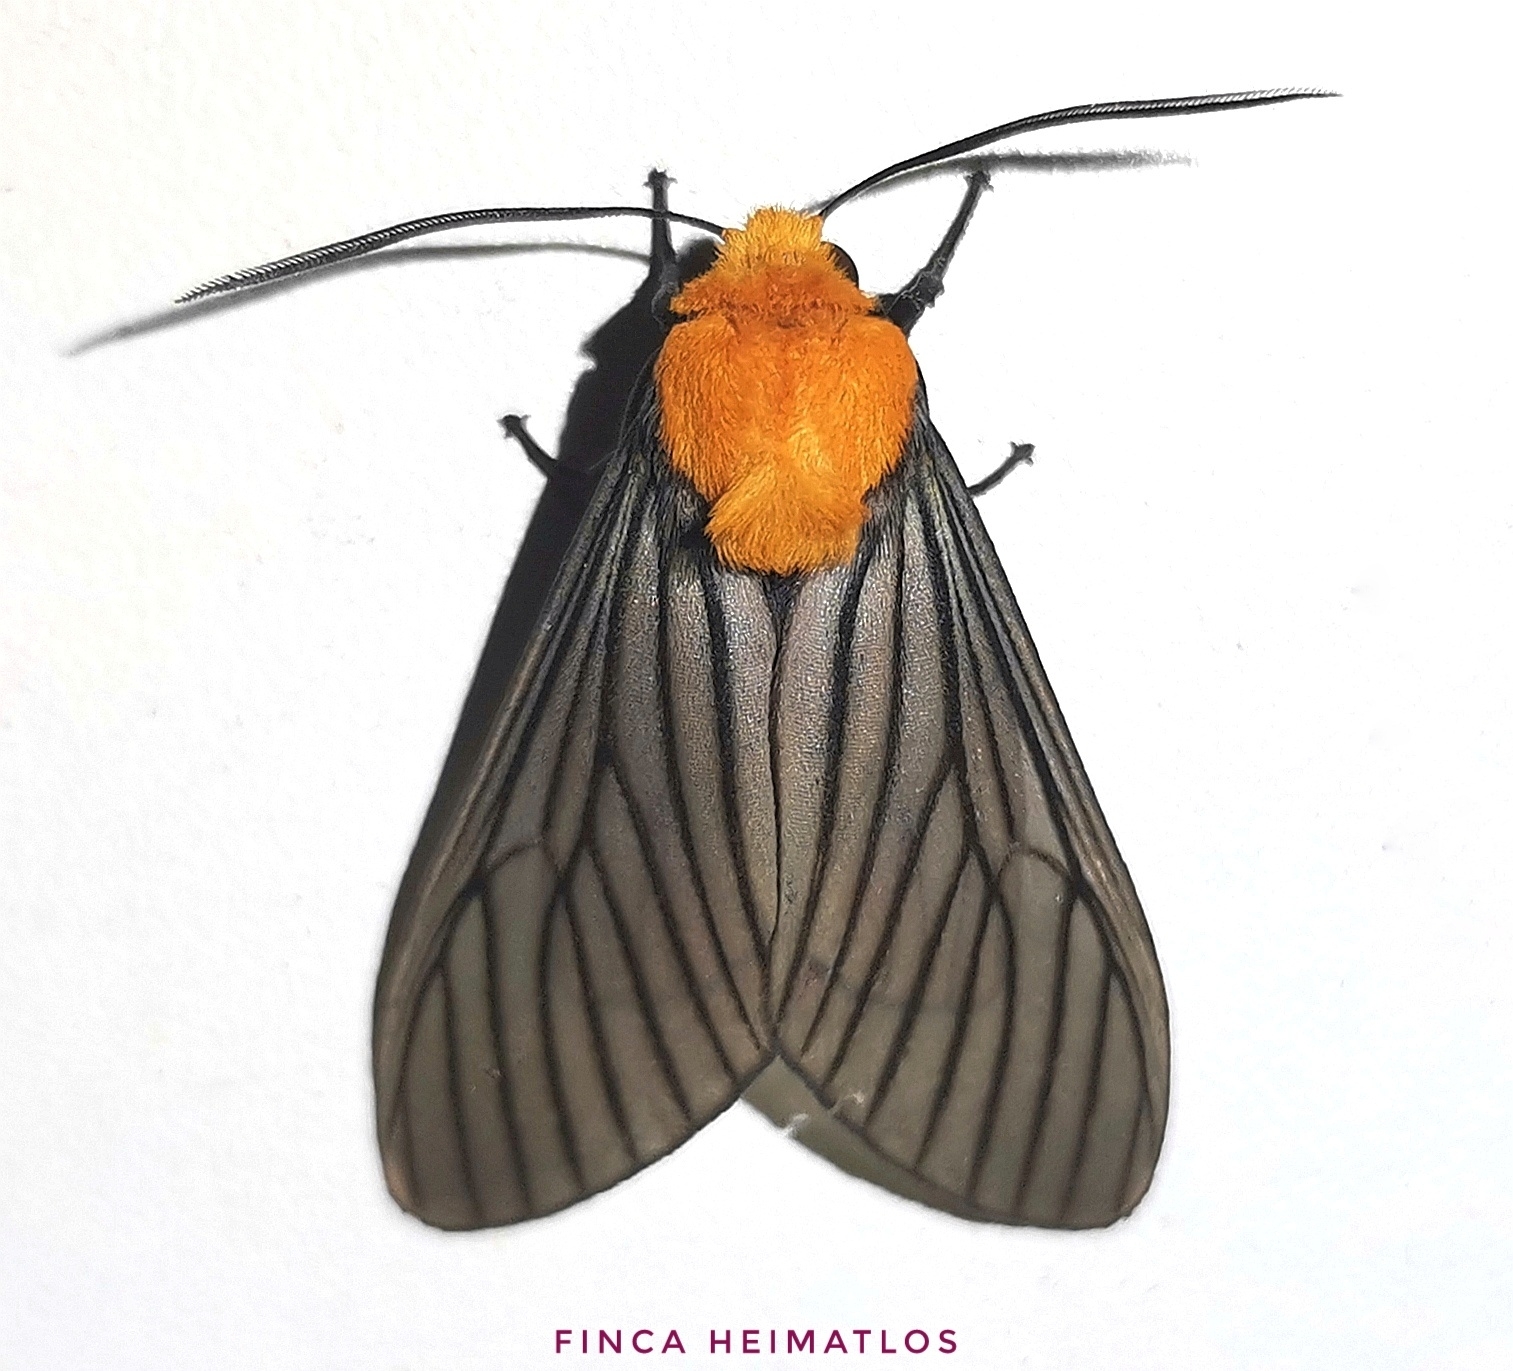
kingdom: Animalia
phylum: Arthropoda
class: Insecta
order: Lepidoptera
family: Erebidae
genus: Pseudischnocampa
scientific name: Pseudischnocampa humosa
